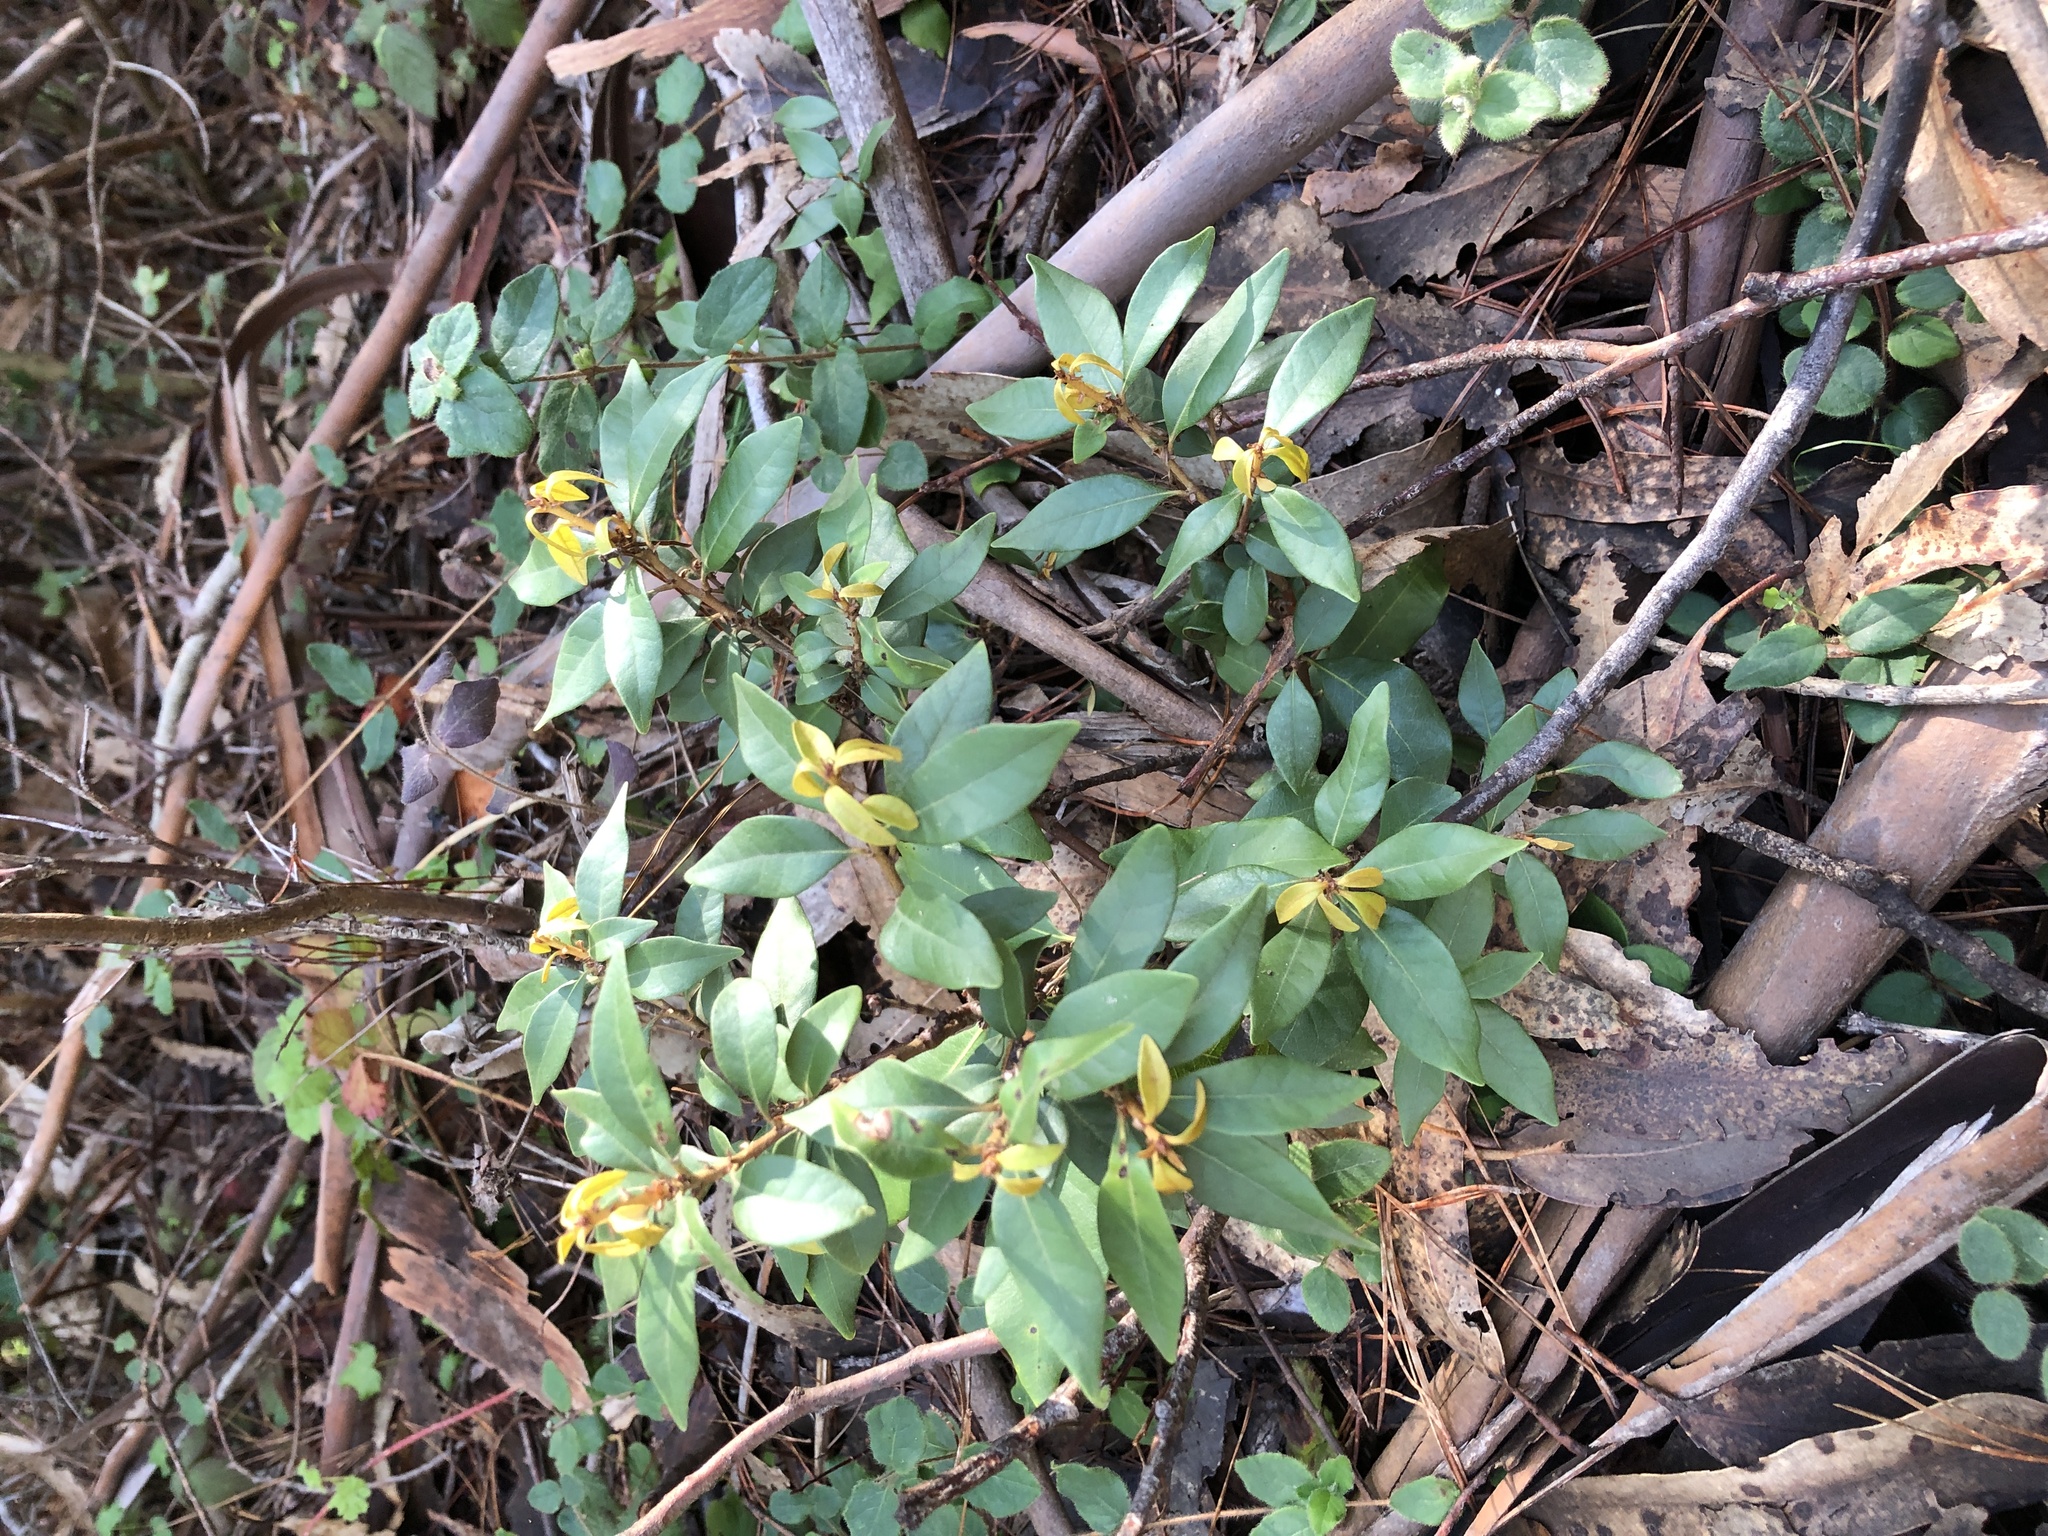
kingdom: Plantae
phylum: Tracheophyta
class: Magnoliopsida
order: Fagales
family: Fagaceae
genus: Chrysolepis
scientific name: Chrysolepis chrysophylla
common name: Giant chinquapin
